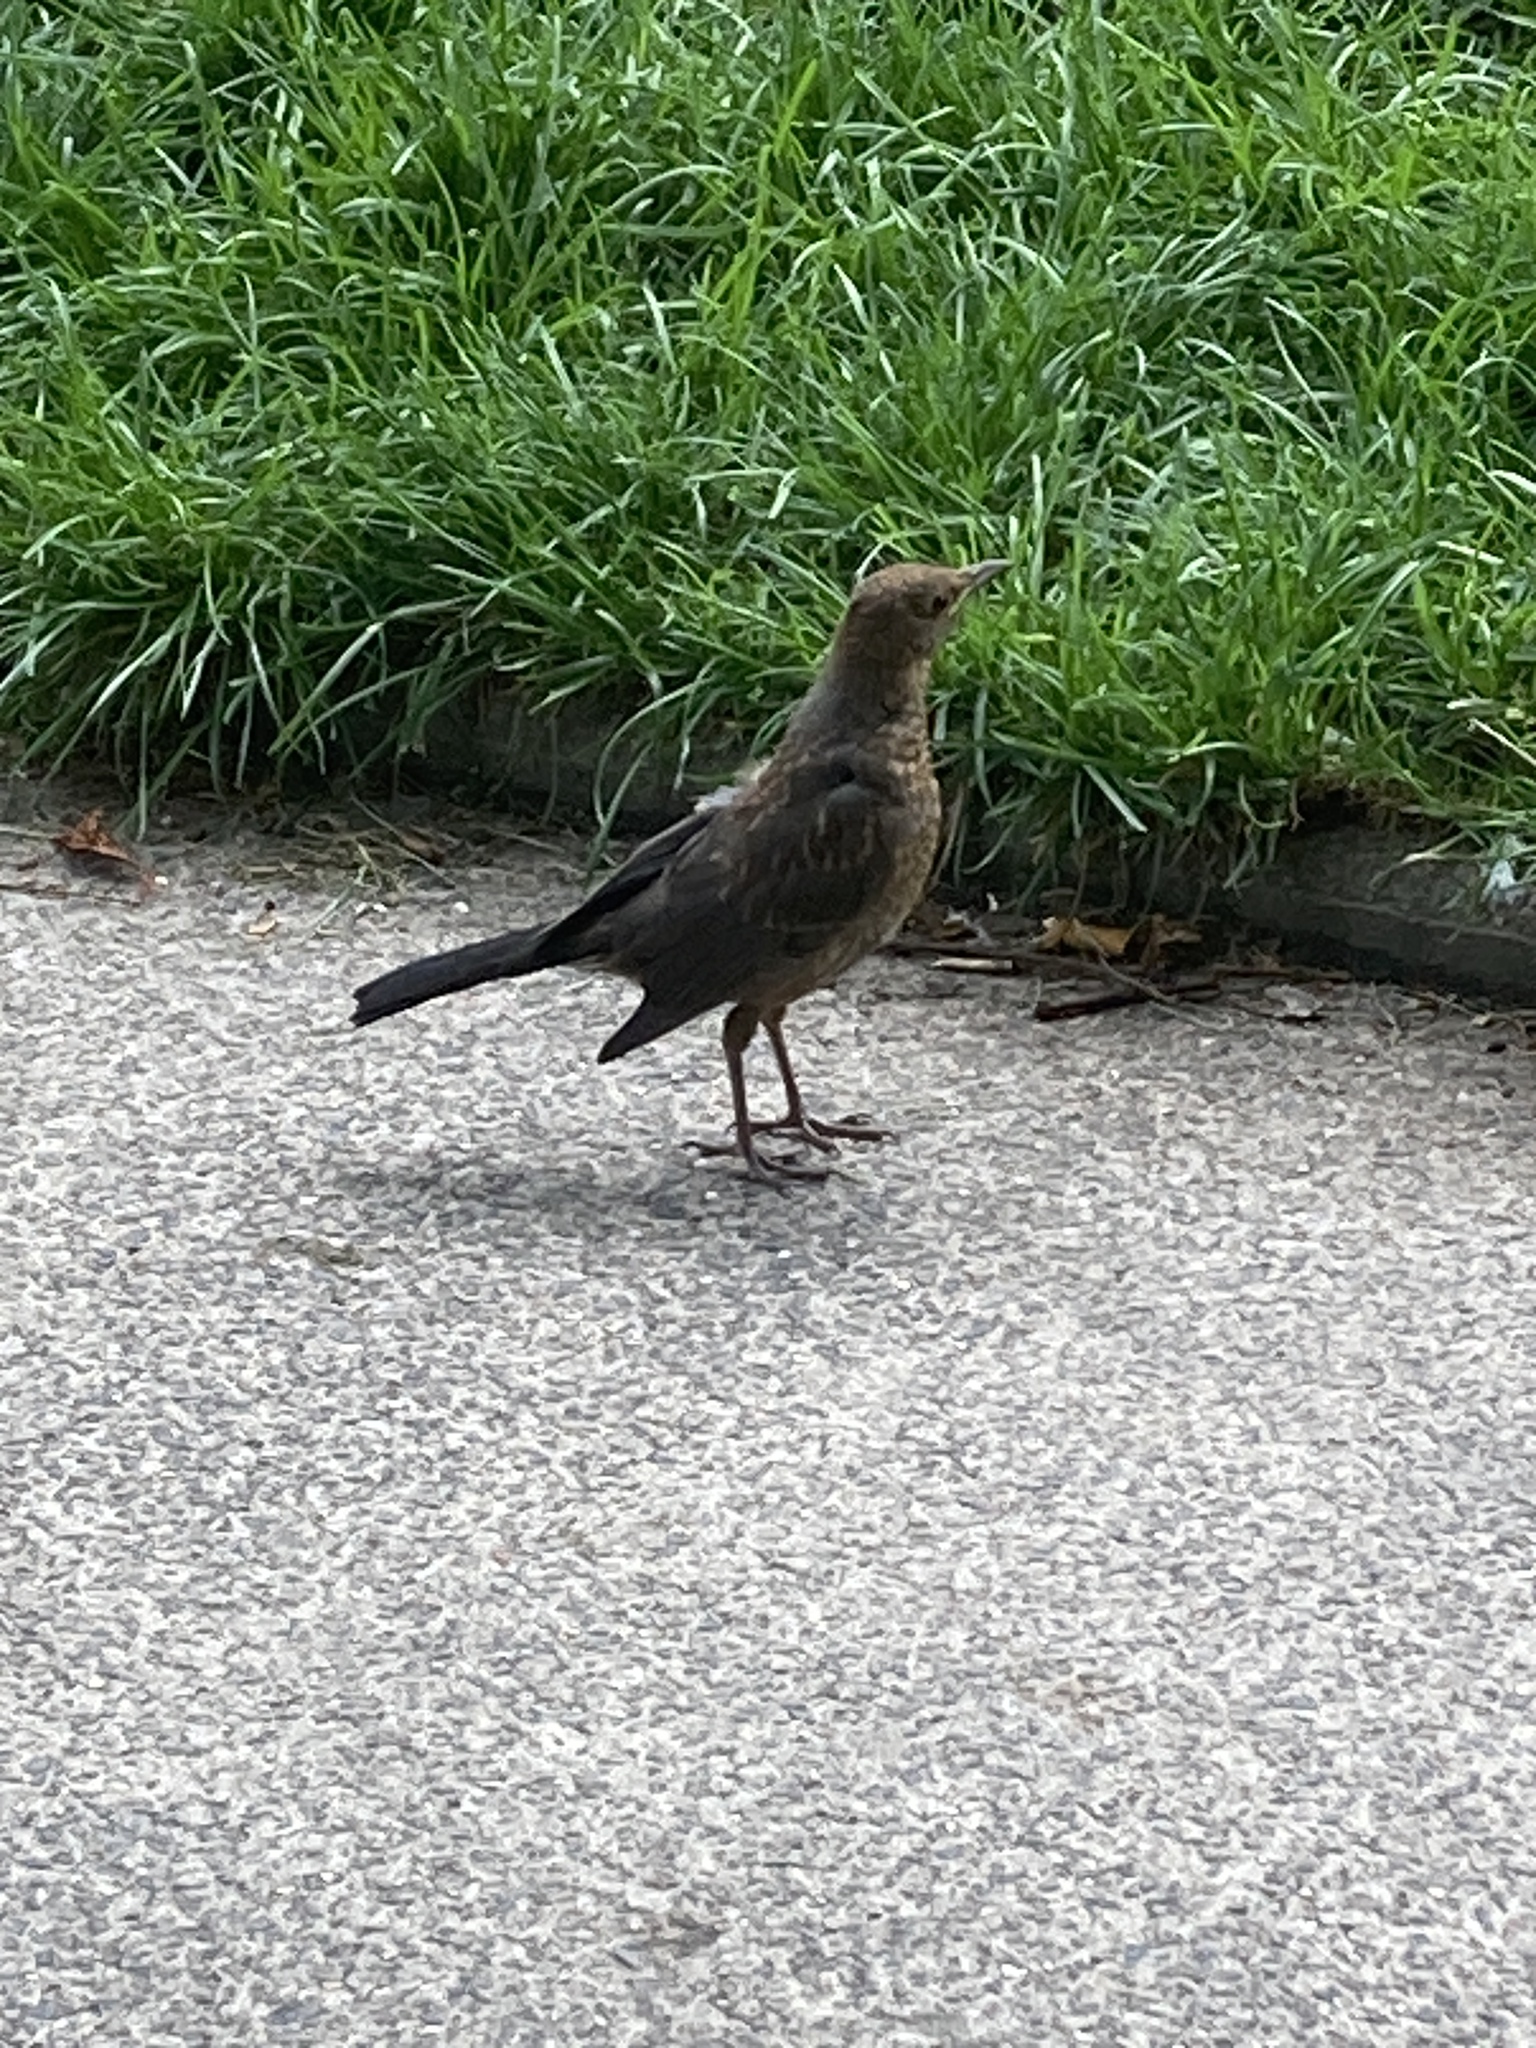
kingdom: Animalia
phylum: Chordata
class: Aves
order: Passeriformes
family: Turdidae
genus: Turdus
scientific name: Turdus merula
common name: Common blackbird
